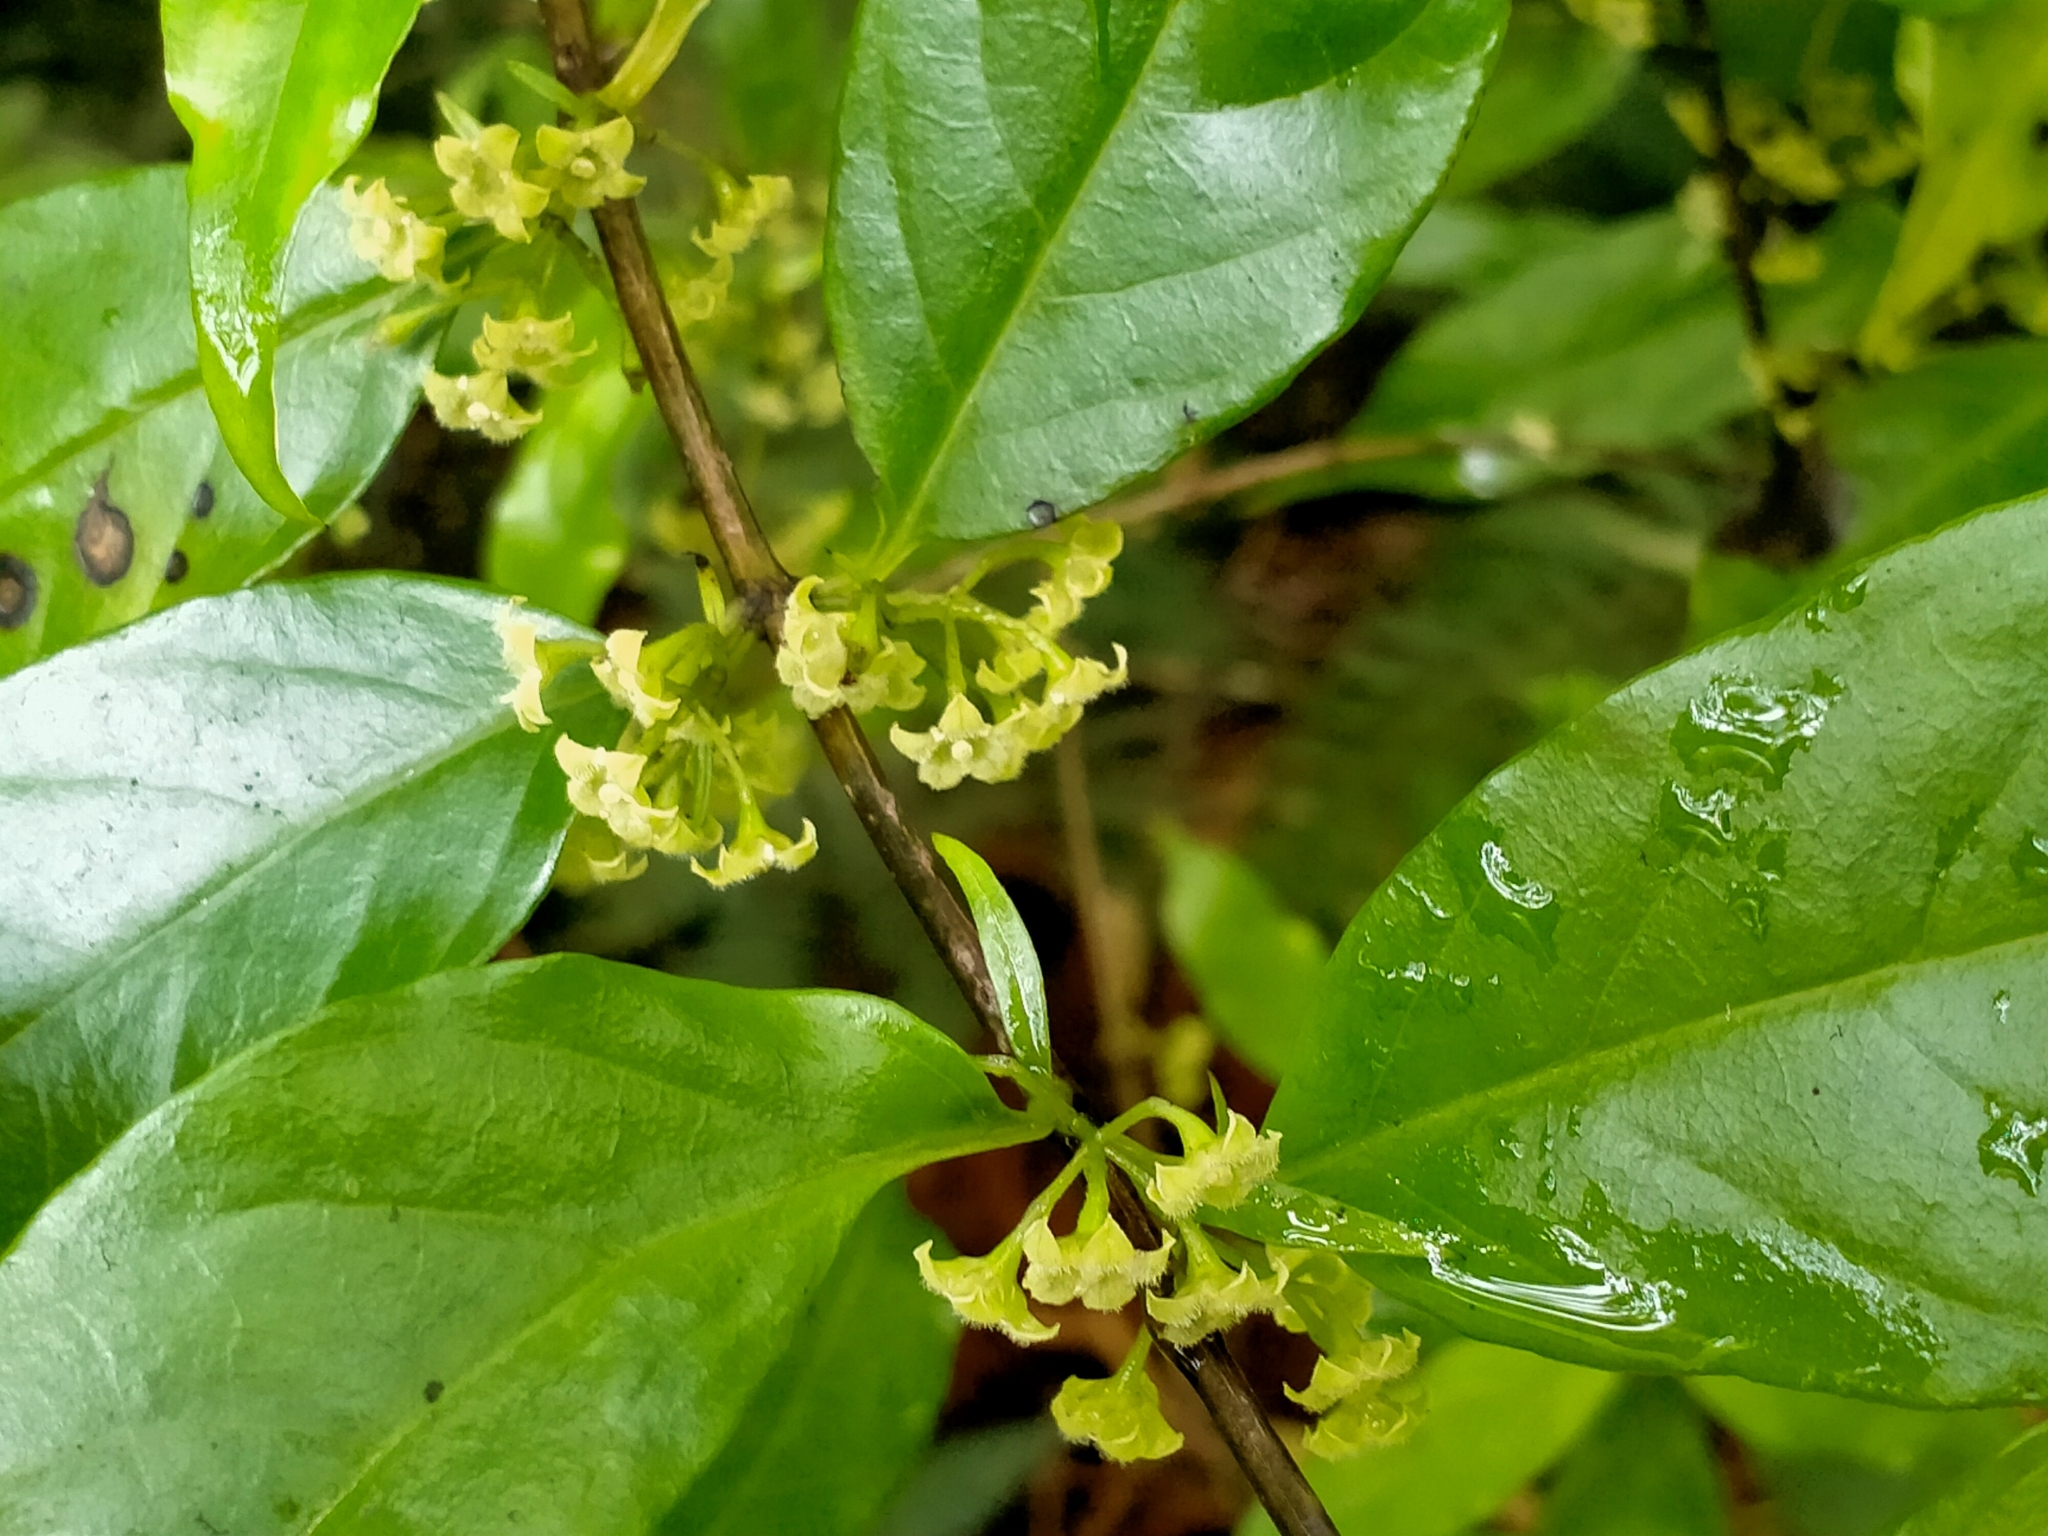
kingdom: Plantae
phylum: Tracheophyta
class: Magnoliopsida
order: Gentianales
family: Loganiaceae
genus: Geniostoma
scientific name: Geniostoma ligustrifolium
